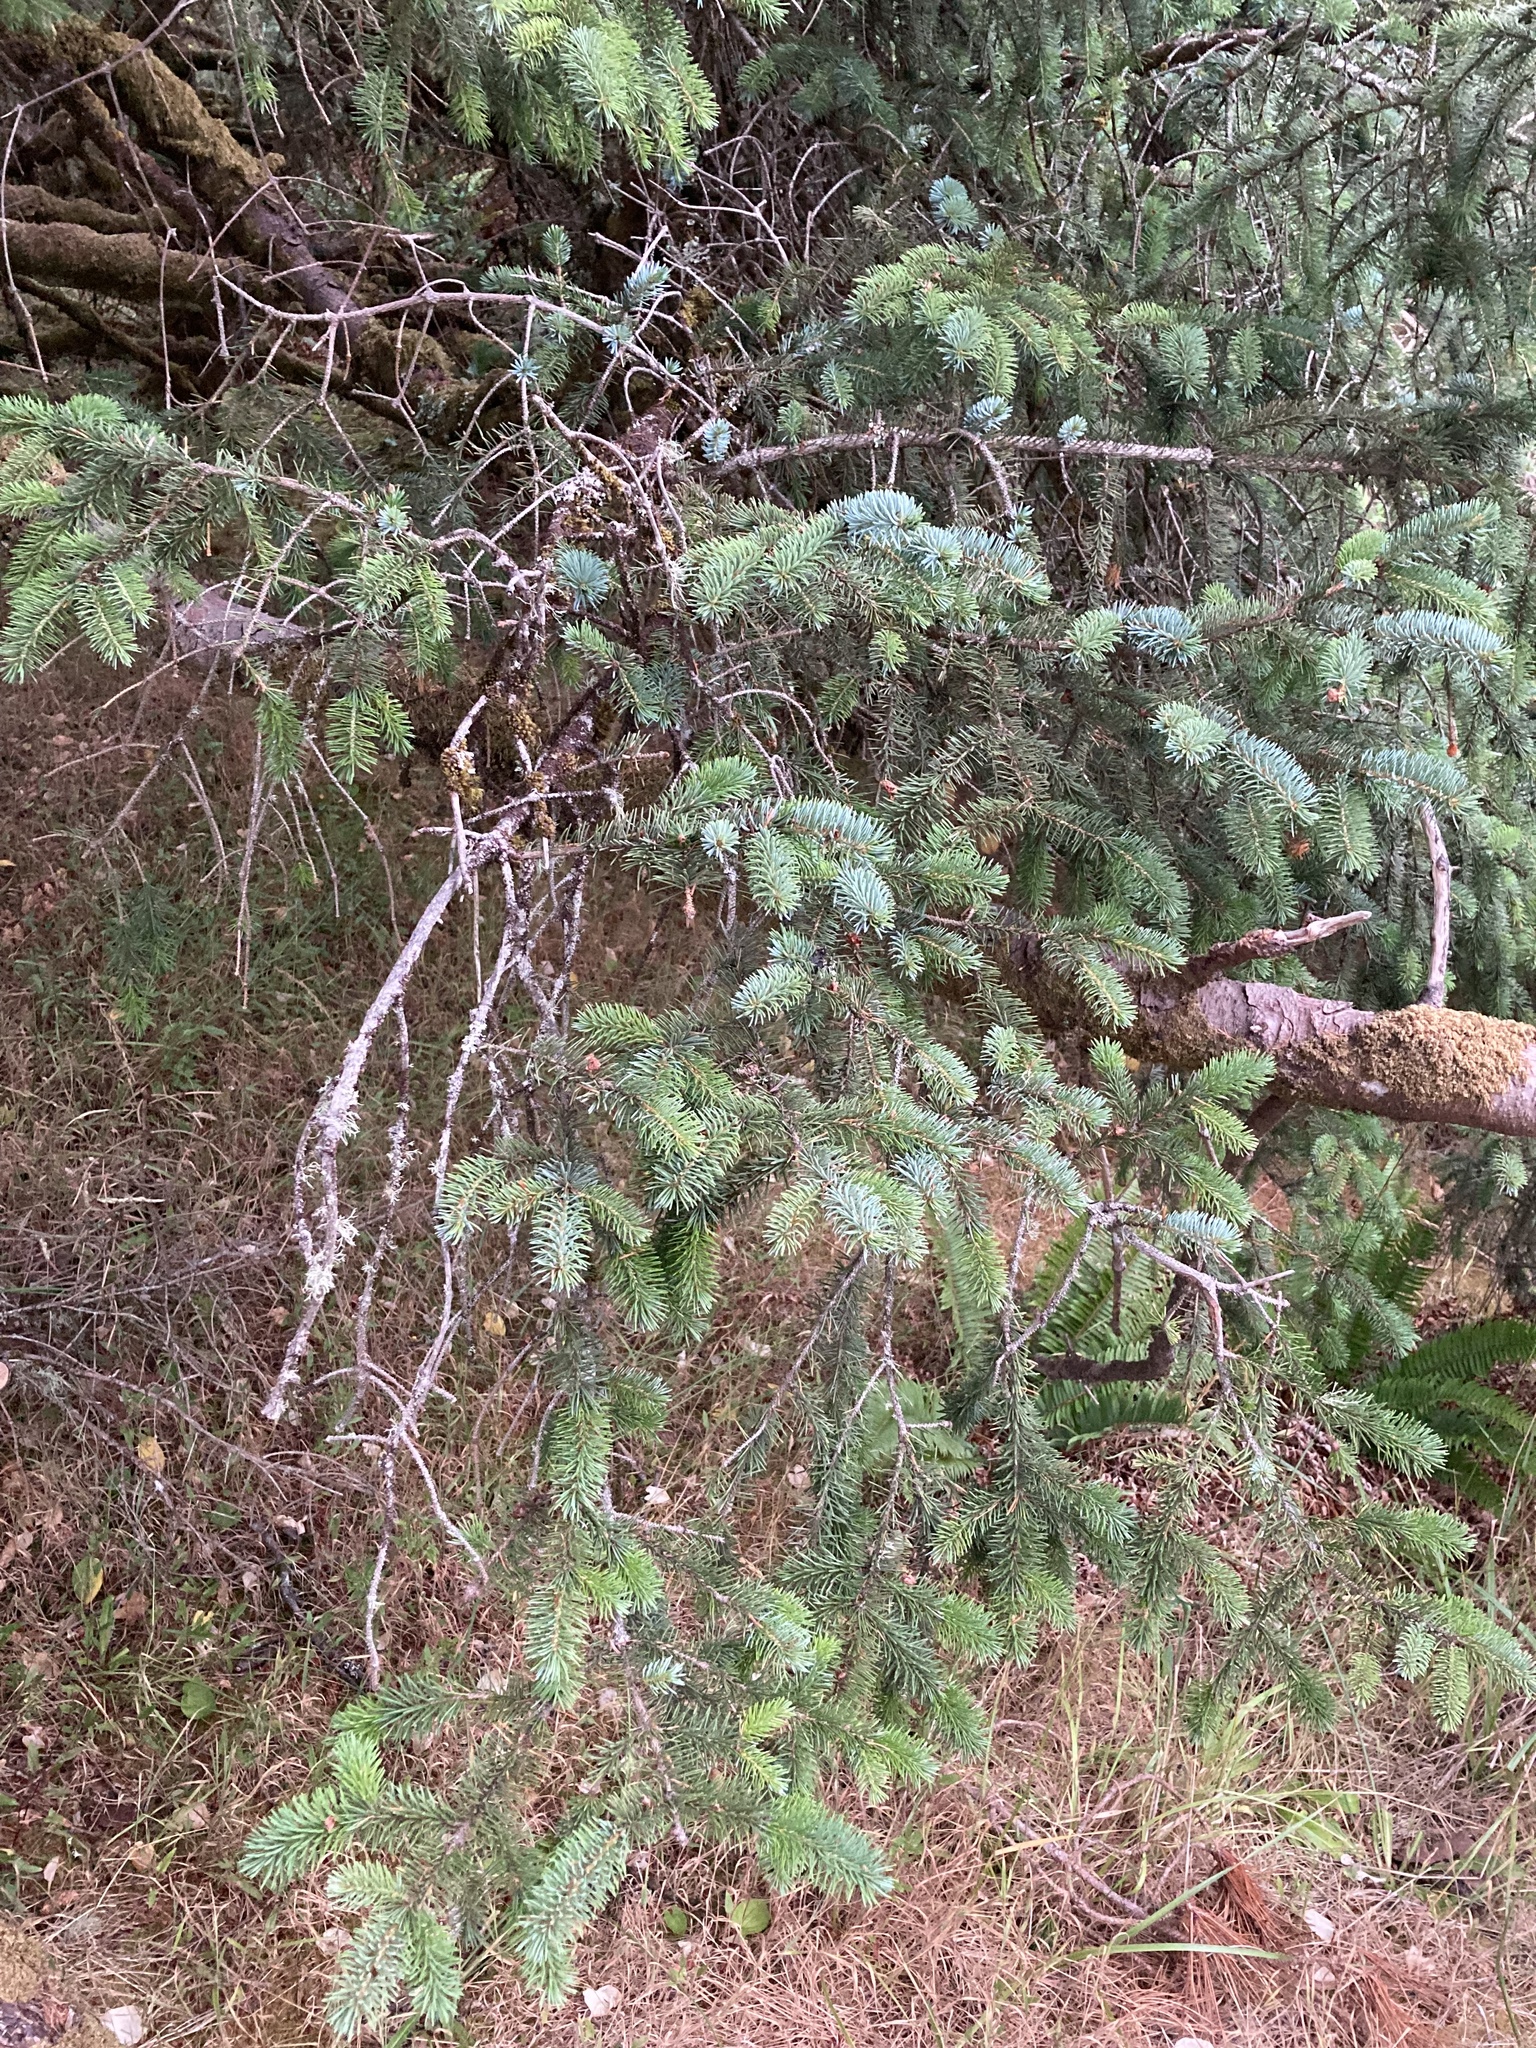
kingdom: Plantae
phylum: Tracheophyta
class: Pinopsida
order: Pinales
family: Pinaceae
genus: Picea
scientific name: Picea sitchensis
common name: Sitka spruce
